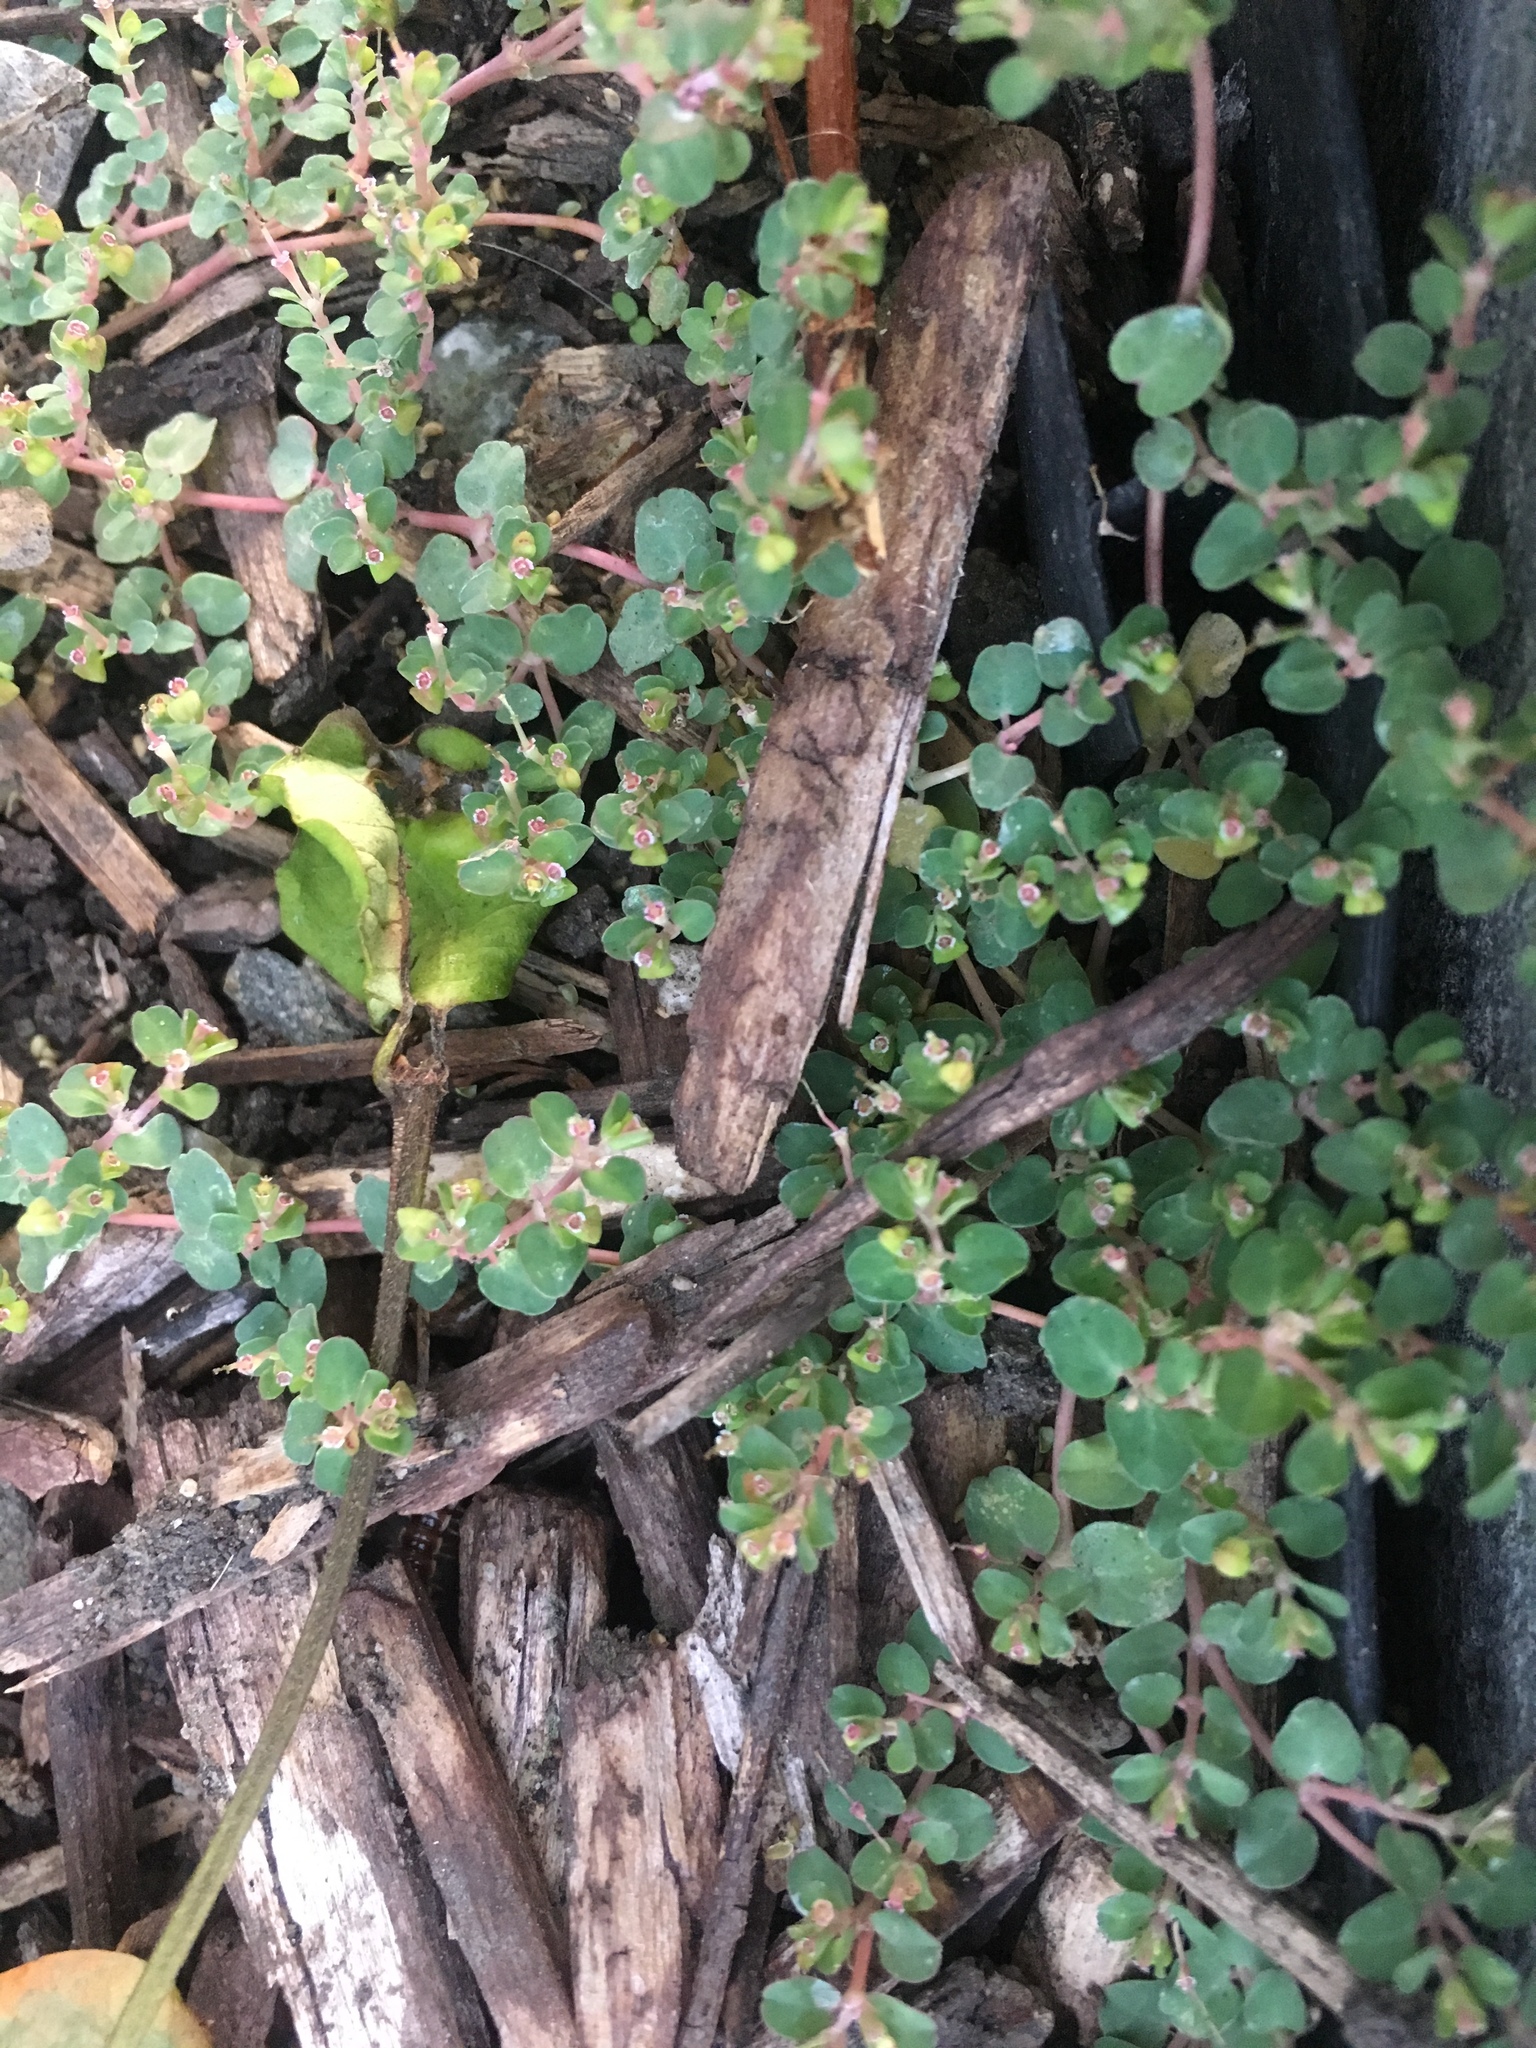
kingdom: Plantae
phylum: Tracheophyta
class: Magnoliopsida
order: Malpighiales
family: Euphorbiaceae
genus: Euphorbia
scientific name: Euphorbia serpens
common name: Matted sandmat
